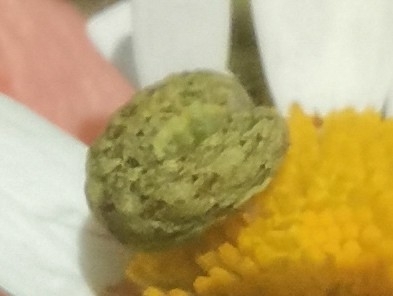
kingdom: Animalia
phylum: Arthropoda
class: Insecta
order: Lepidoptera
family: Noctuidae
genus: Hecatera
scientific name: Hecatera bicolorata
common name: Broad-barred white
